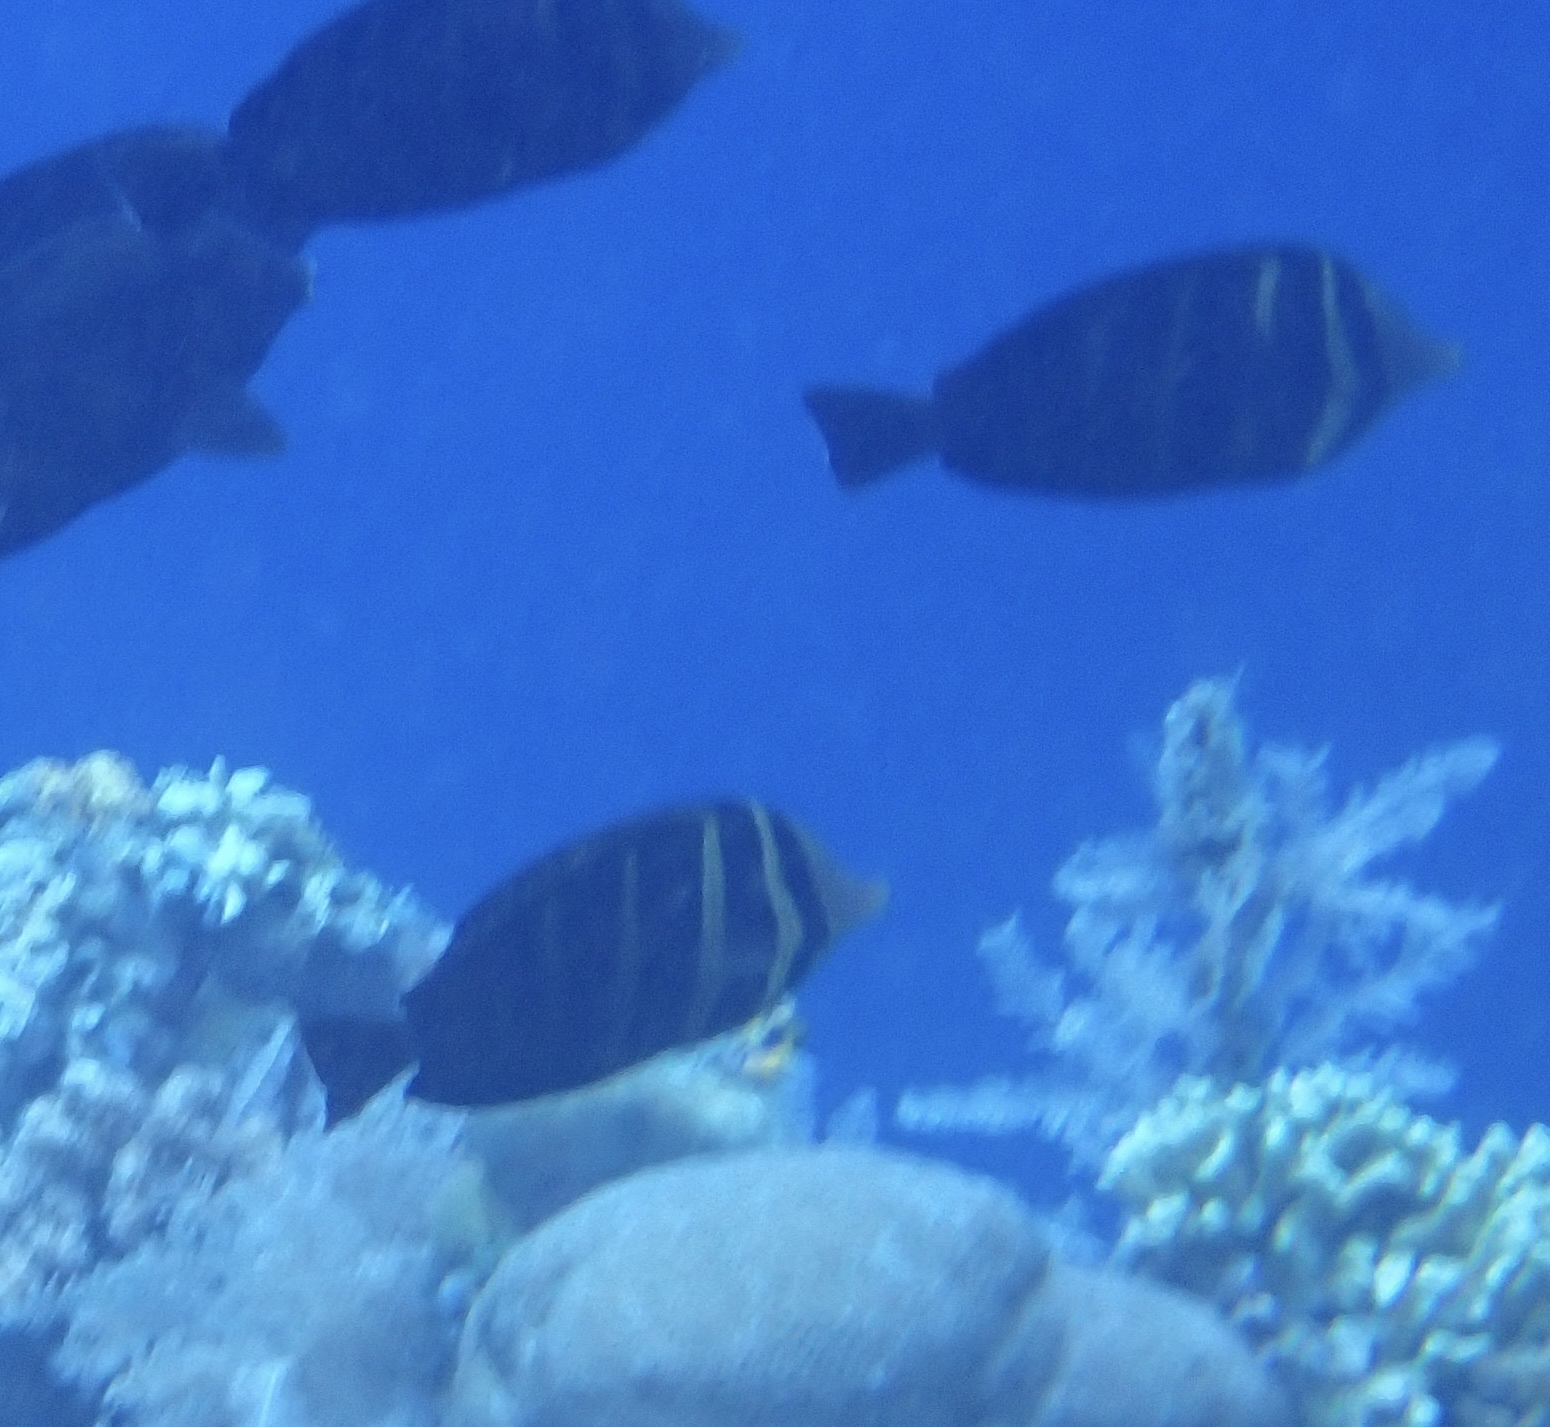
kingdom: Animalia
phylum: Chordata
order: Perciformes
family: Acanthuridae
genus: Zebrasoma
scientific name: Zebrasoma veliferum
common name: Sailfin surgeonfish
